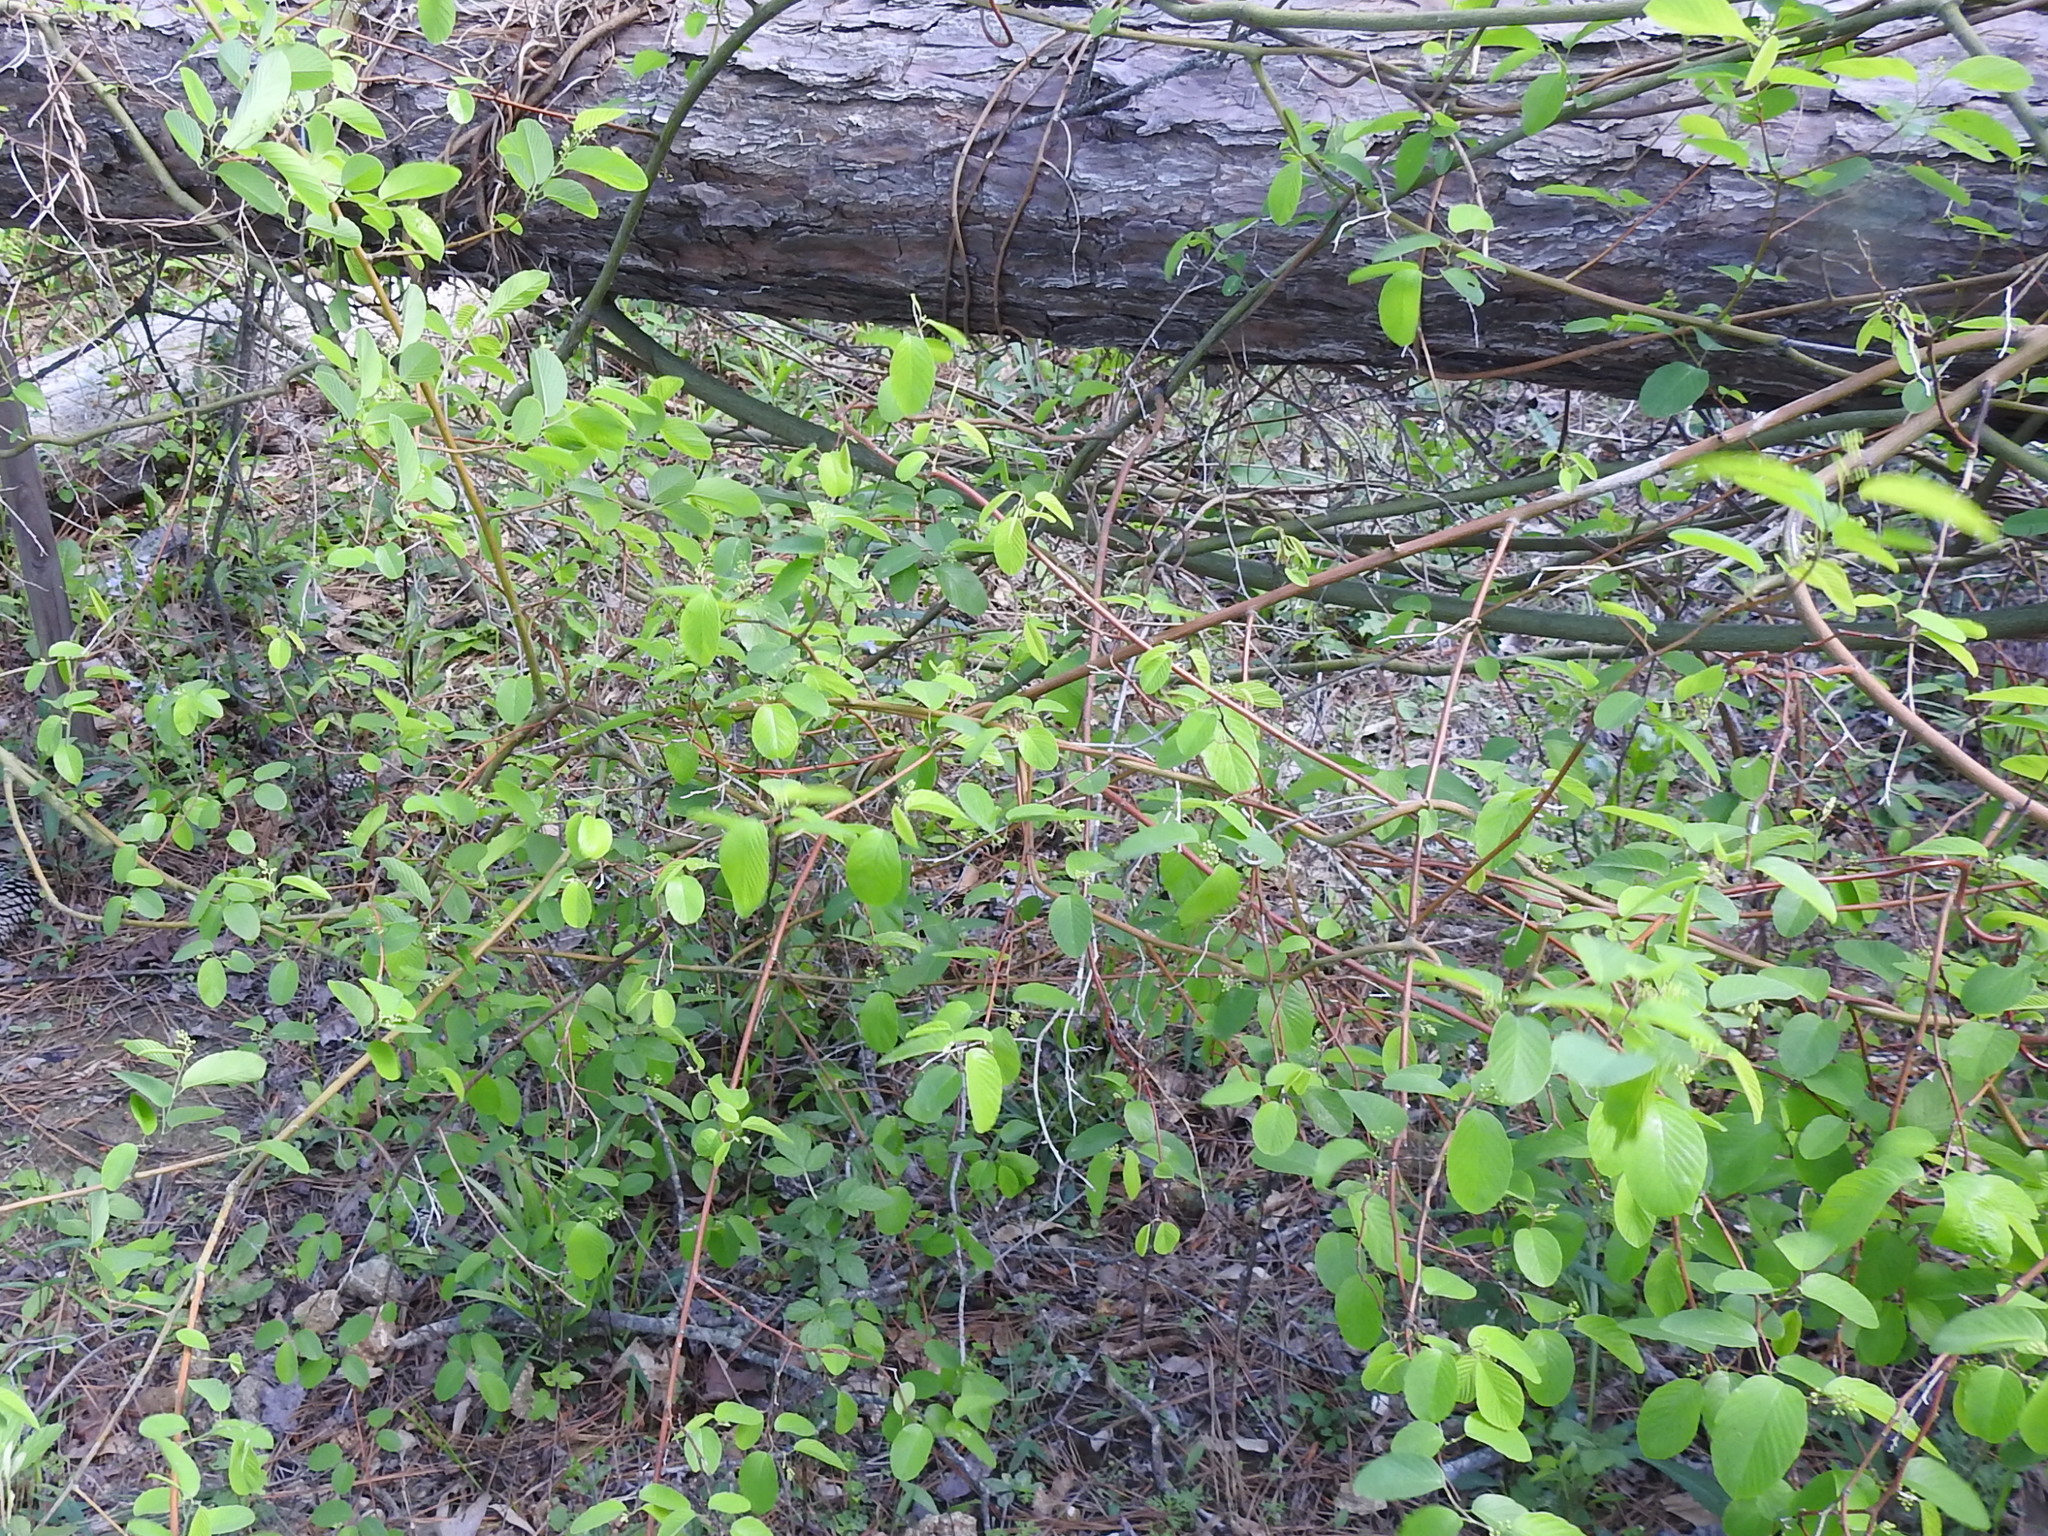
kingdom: Plantae
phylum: Tracheophyta
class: Magnoliopsida
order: Rosales
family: Rhamnaceae
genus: Berchemia
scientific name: Berchemia scandens
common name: Supplejack
